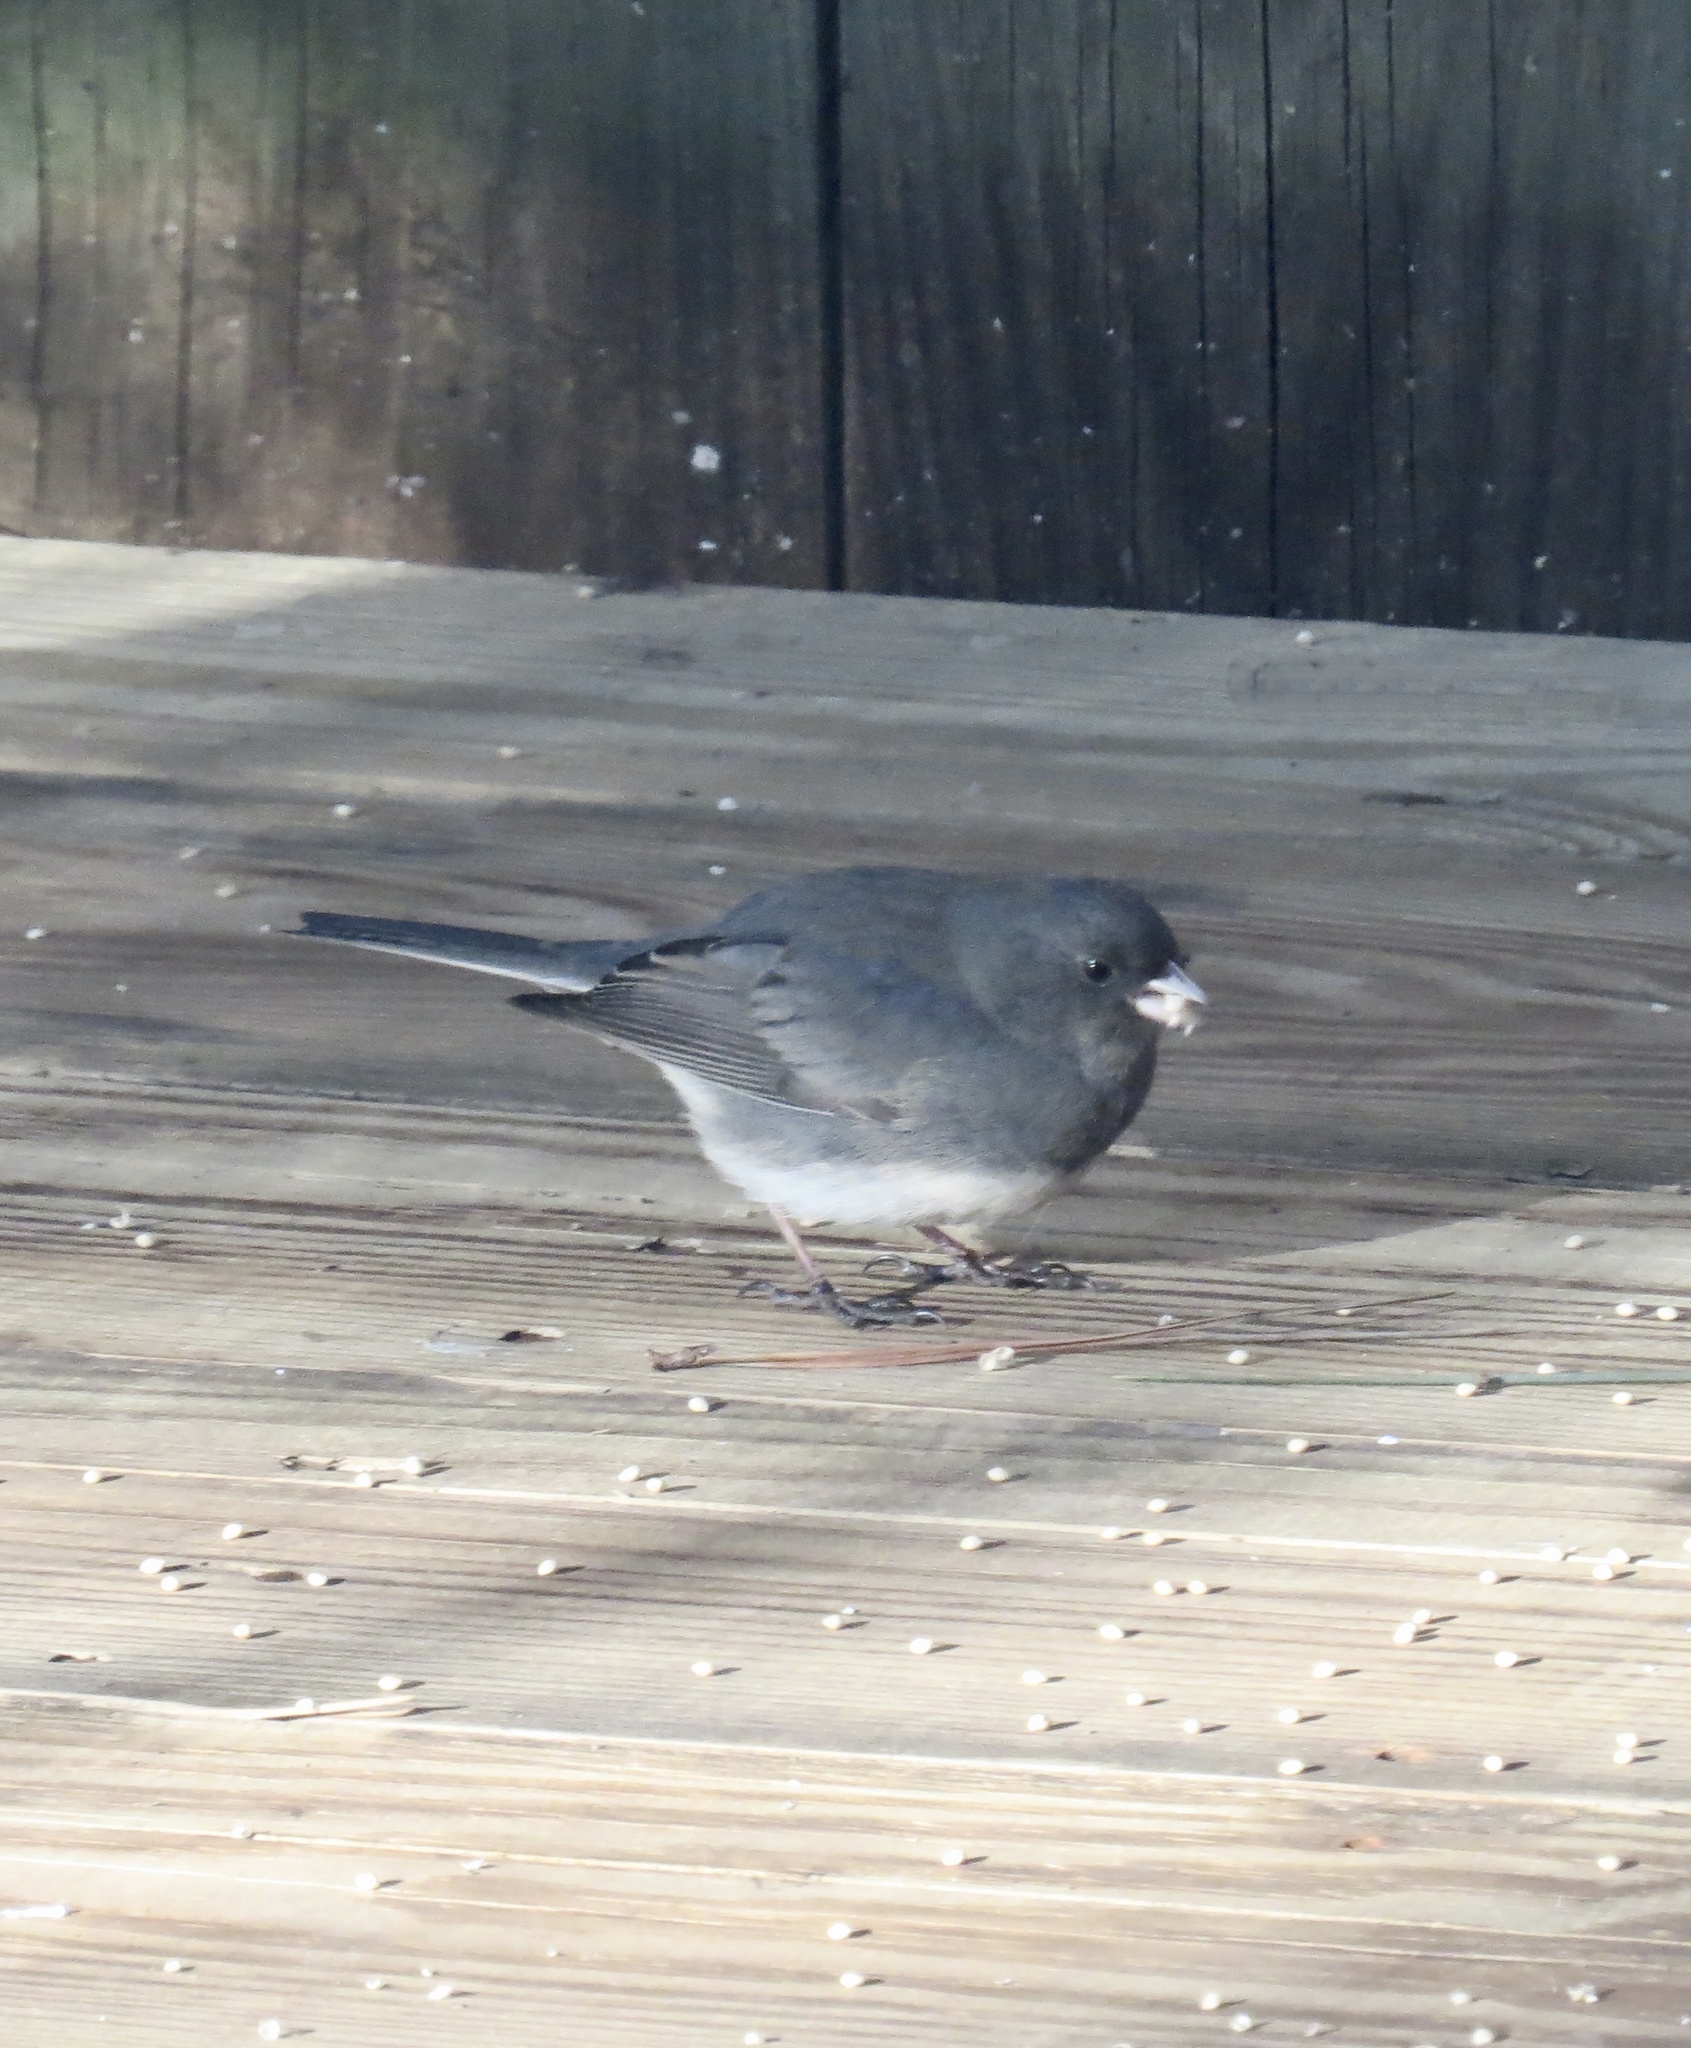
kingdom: Animalia
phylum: Chordata
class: Aves
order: Passeriformes
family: Passerellidae
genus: Junco
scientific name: Junco hyemalis
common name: Dark-eyed junco
